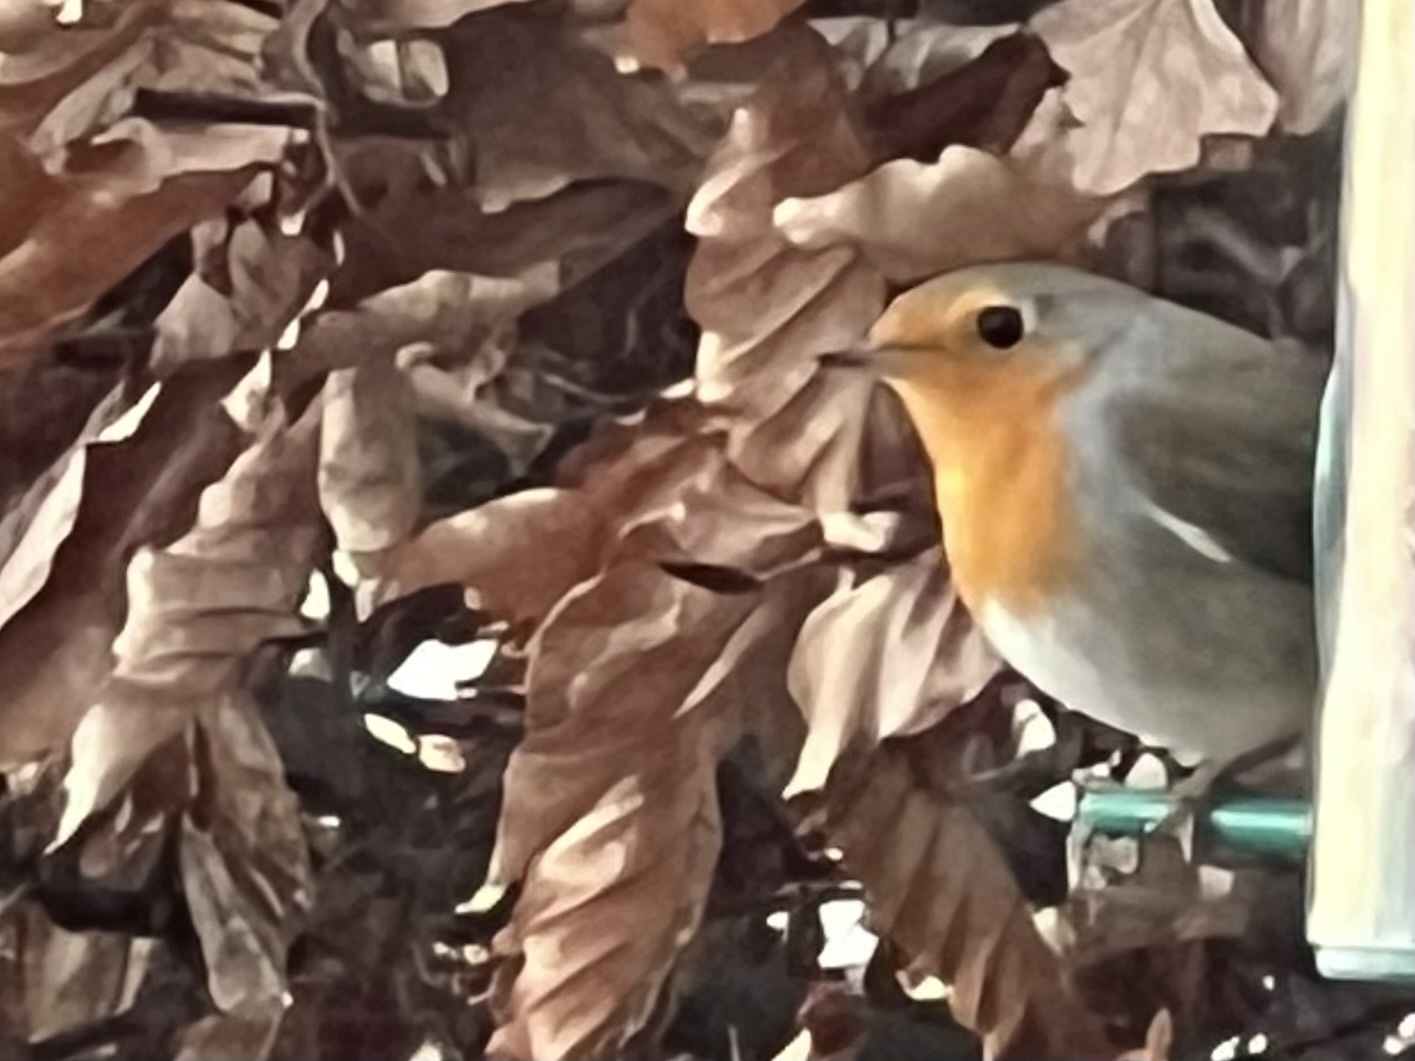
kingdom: Animalia
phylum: Chordata
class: Aves
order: Passeriformes
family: Muscicapidae
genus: Erithacus
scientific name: Erithacus rubecula
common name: European robin
